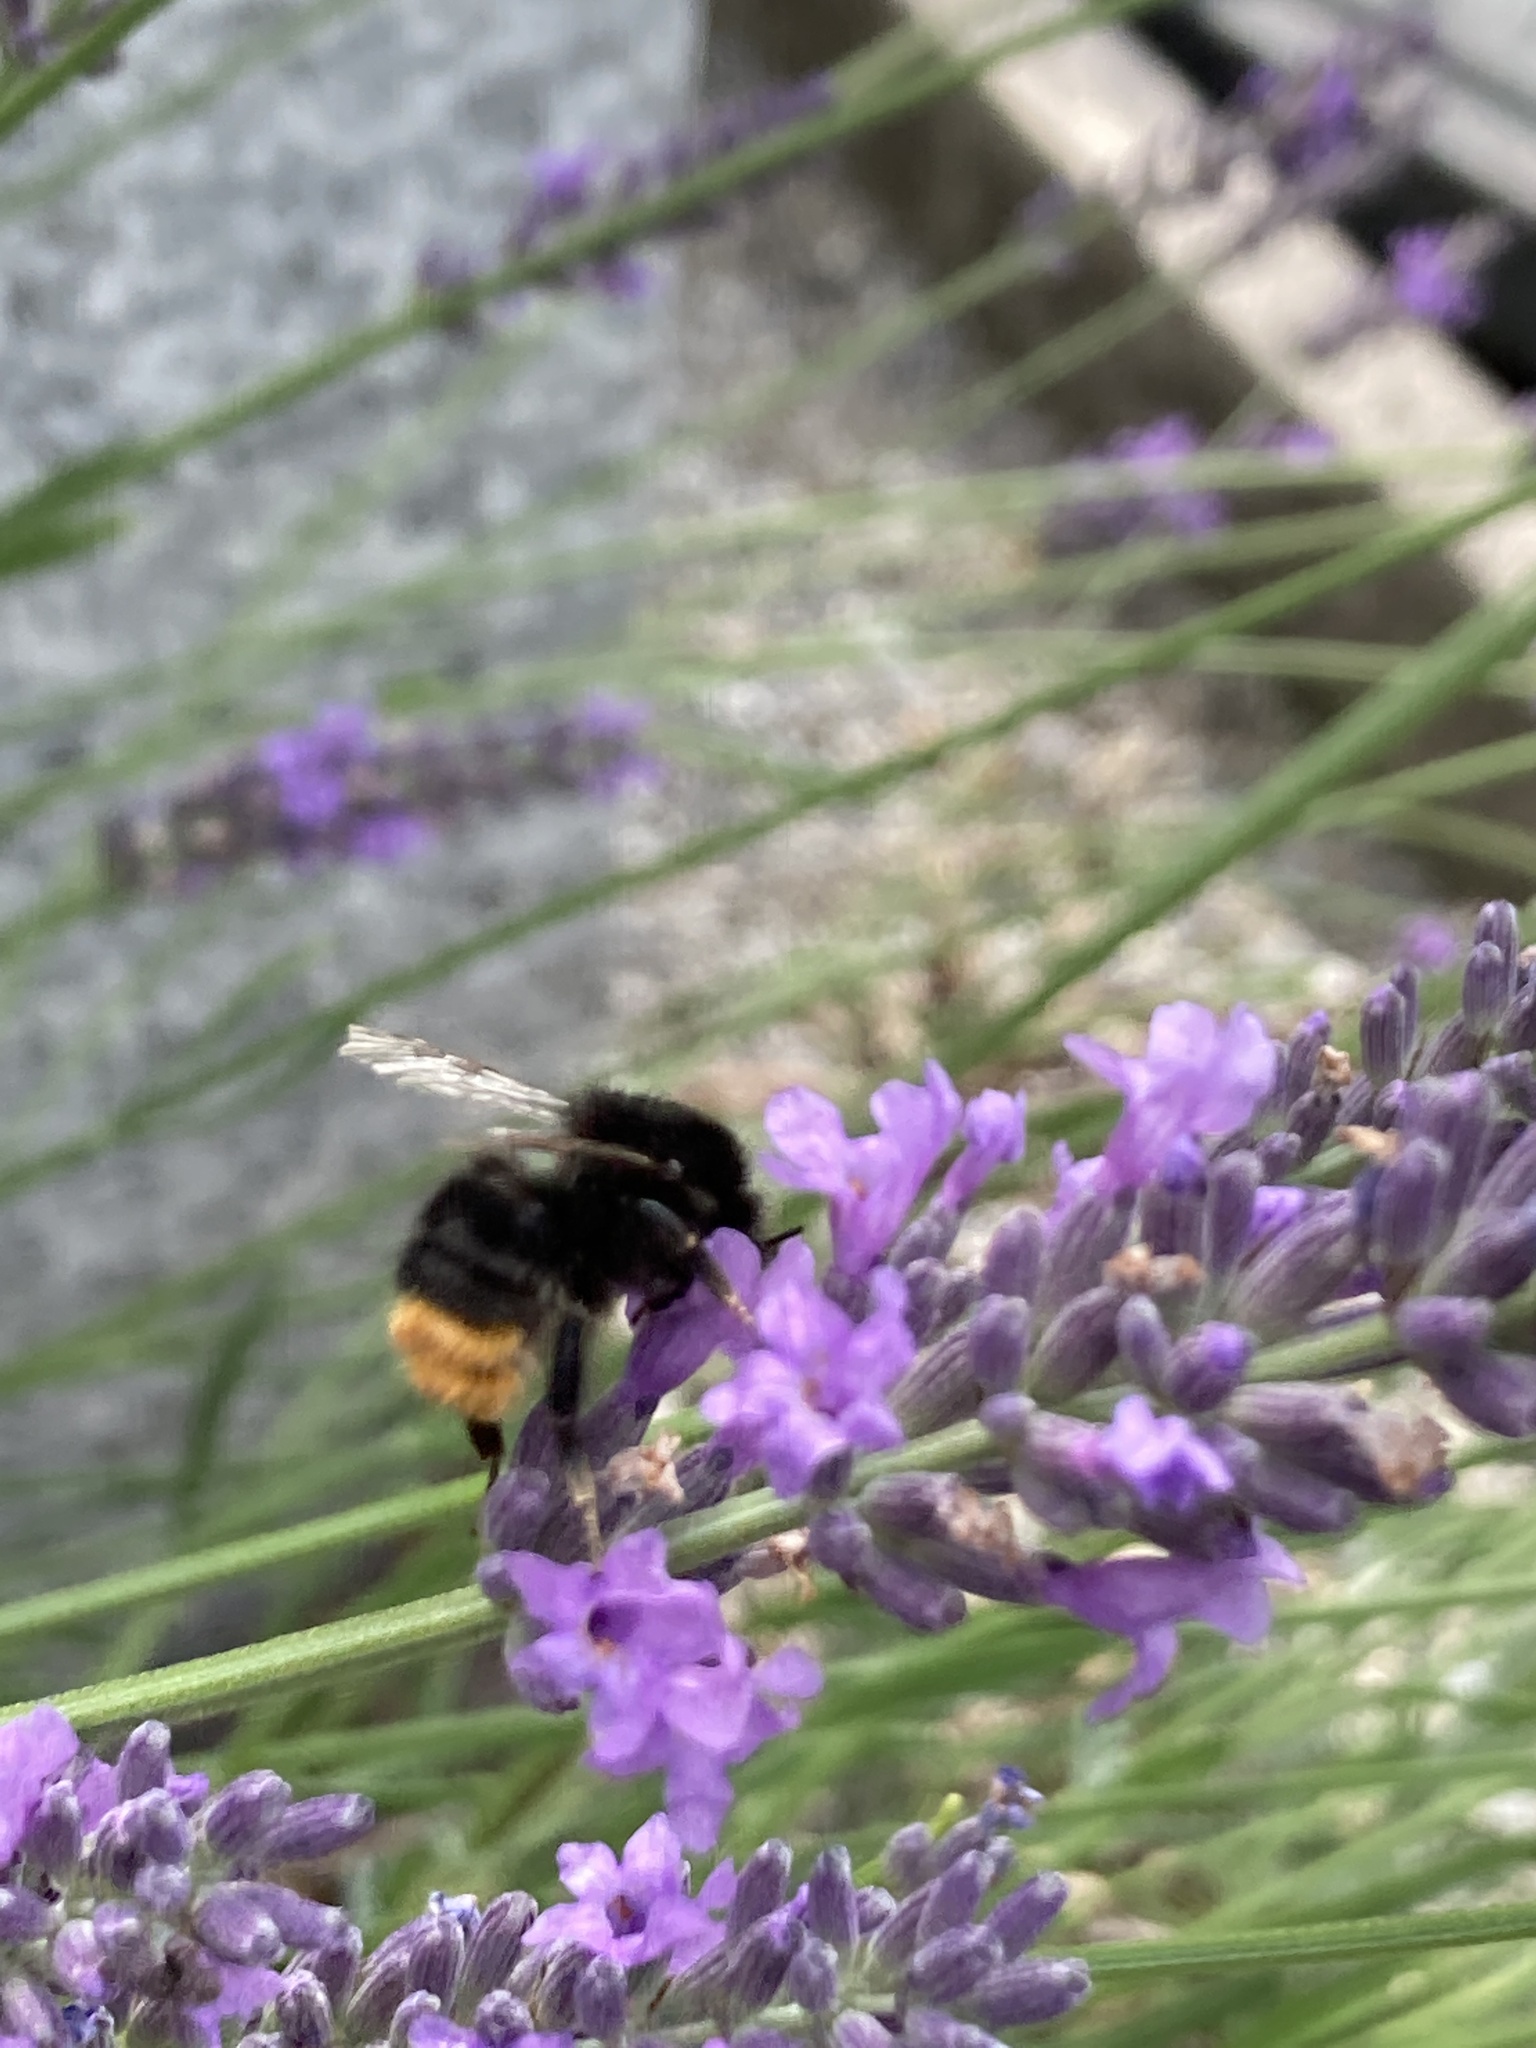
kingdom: Animalia
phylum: Arthropoda
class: Insecta
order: Hymenoptera
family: Apidae
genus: Bombus
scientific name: Bombus lapidarius
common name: Large red-tailed humble-bee
